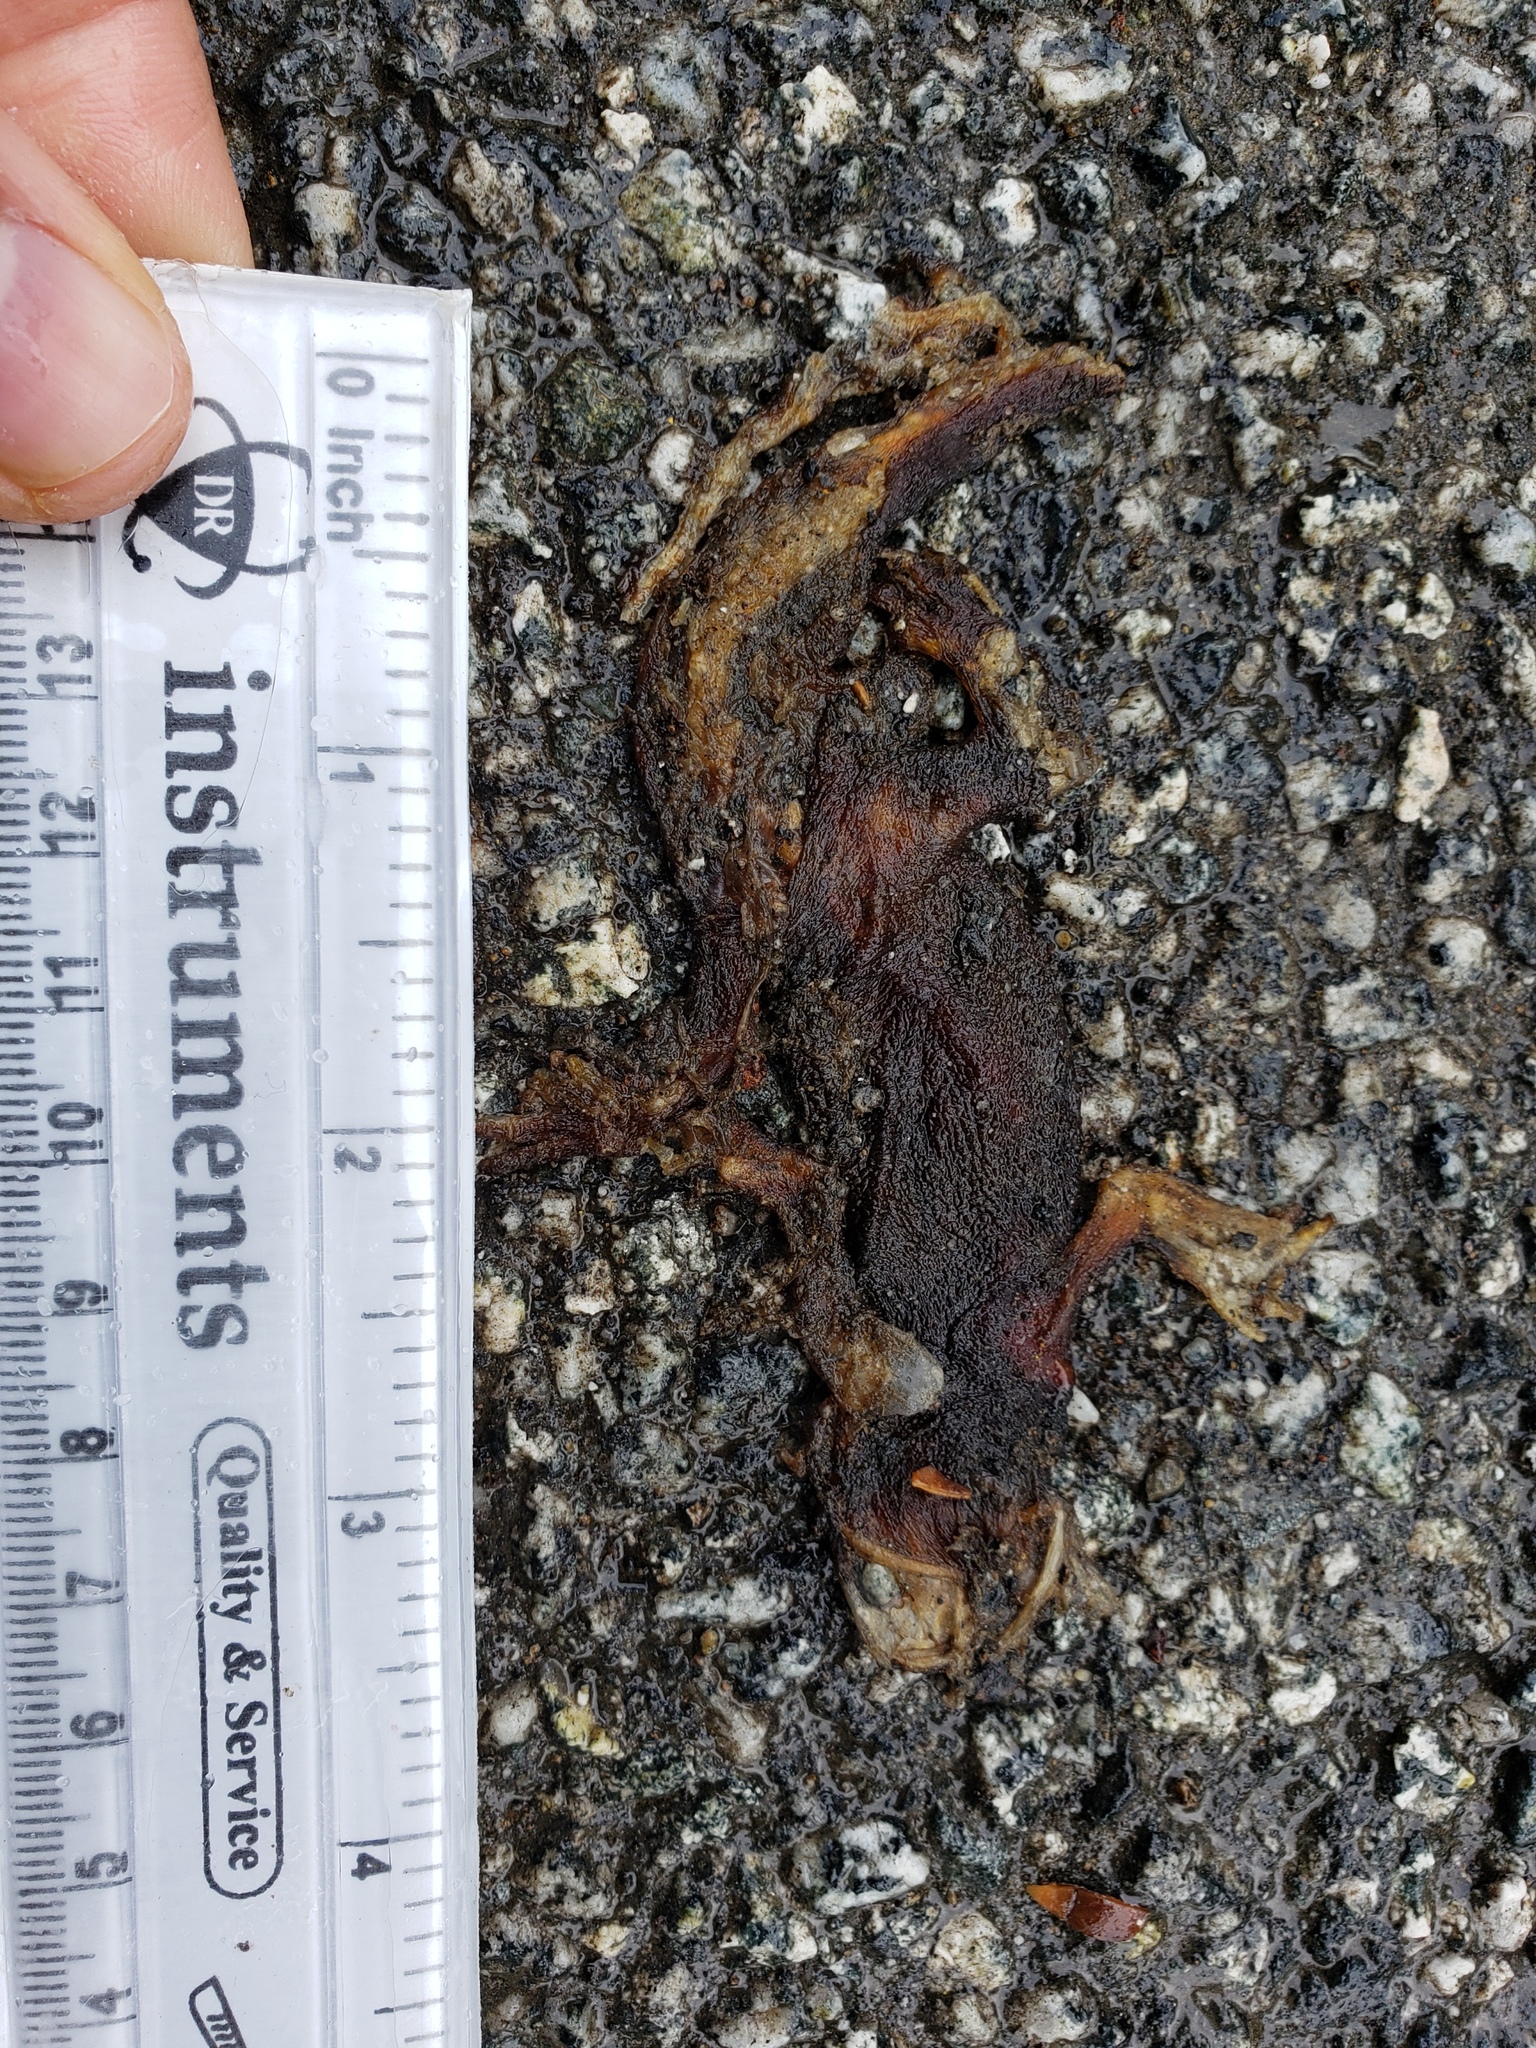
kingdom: Animalia
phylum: Chordata
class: Amphibia
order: Caudata
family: Salamandridae
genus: Taricha
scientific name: Taricha
